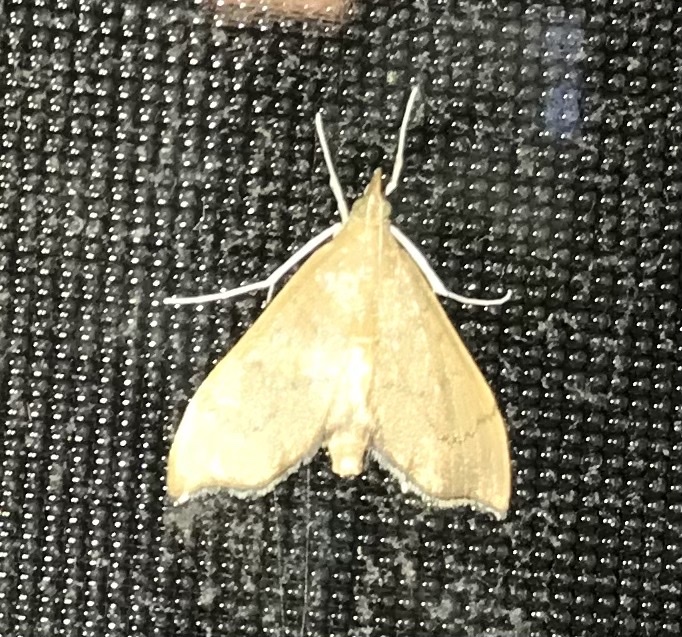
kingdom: Animalia
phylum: Arthropoda
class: Insecta
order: Lepidoptera
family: Crambidae
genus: Sericoplaga
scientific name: Sericoplaga externalis
